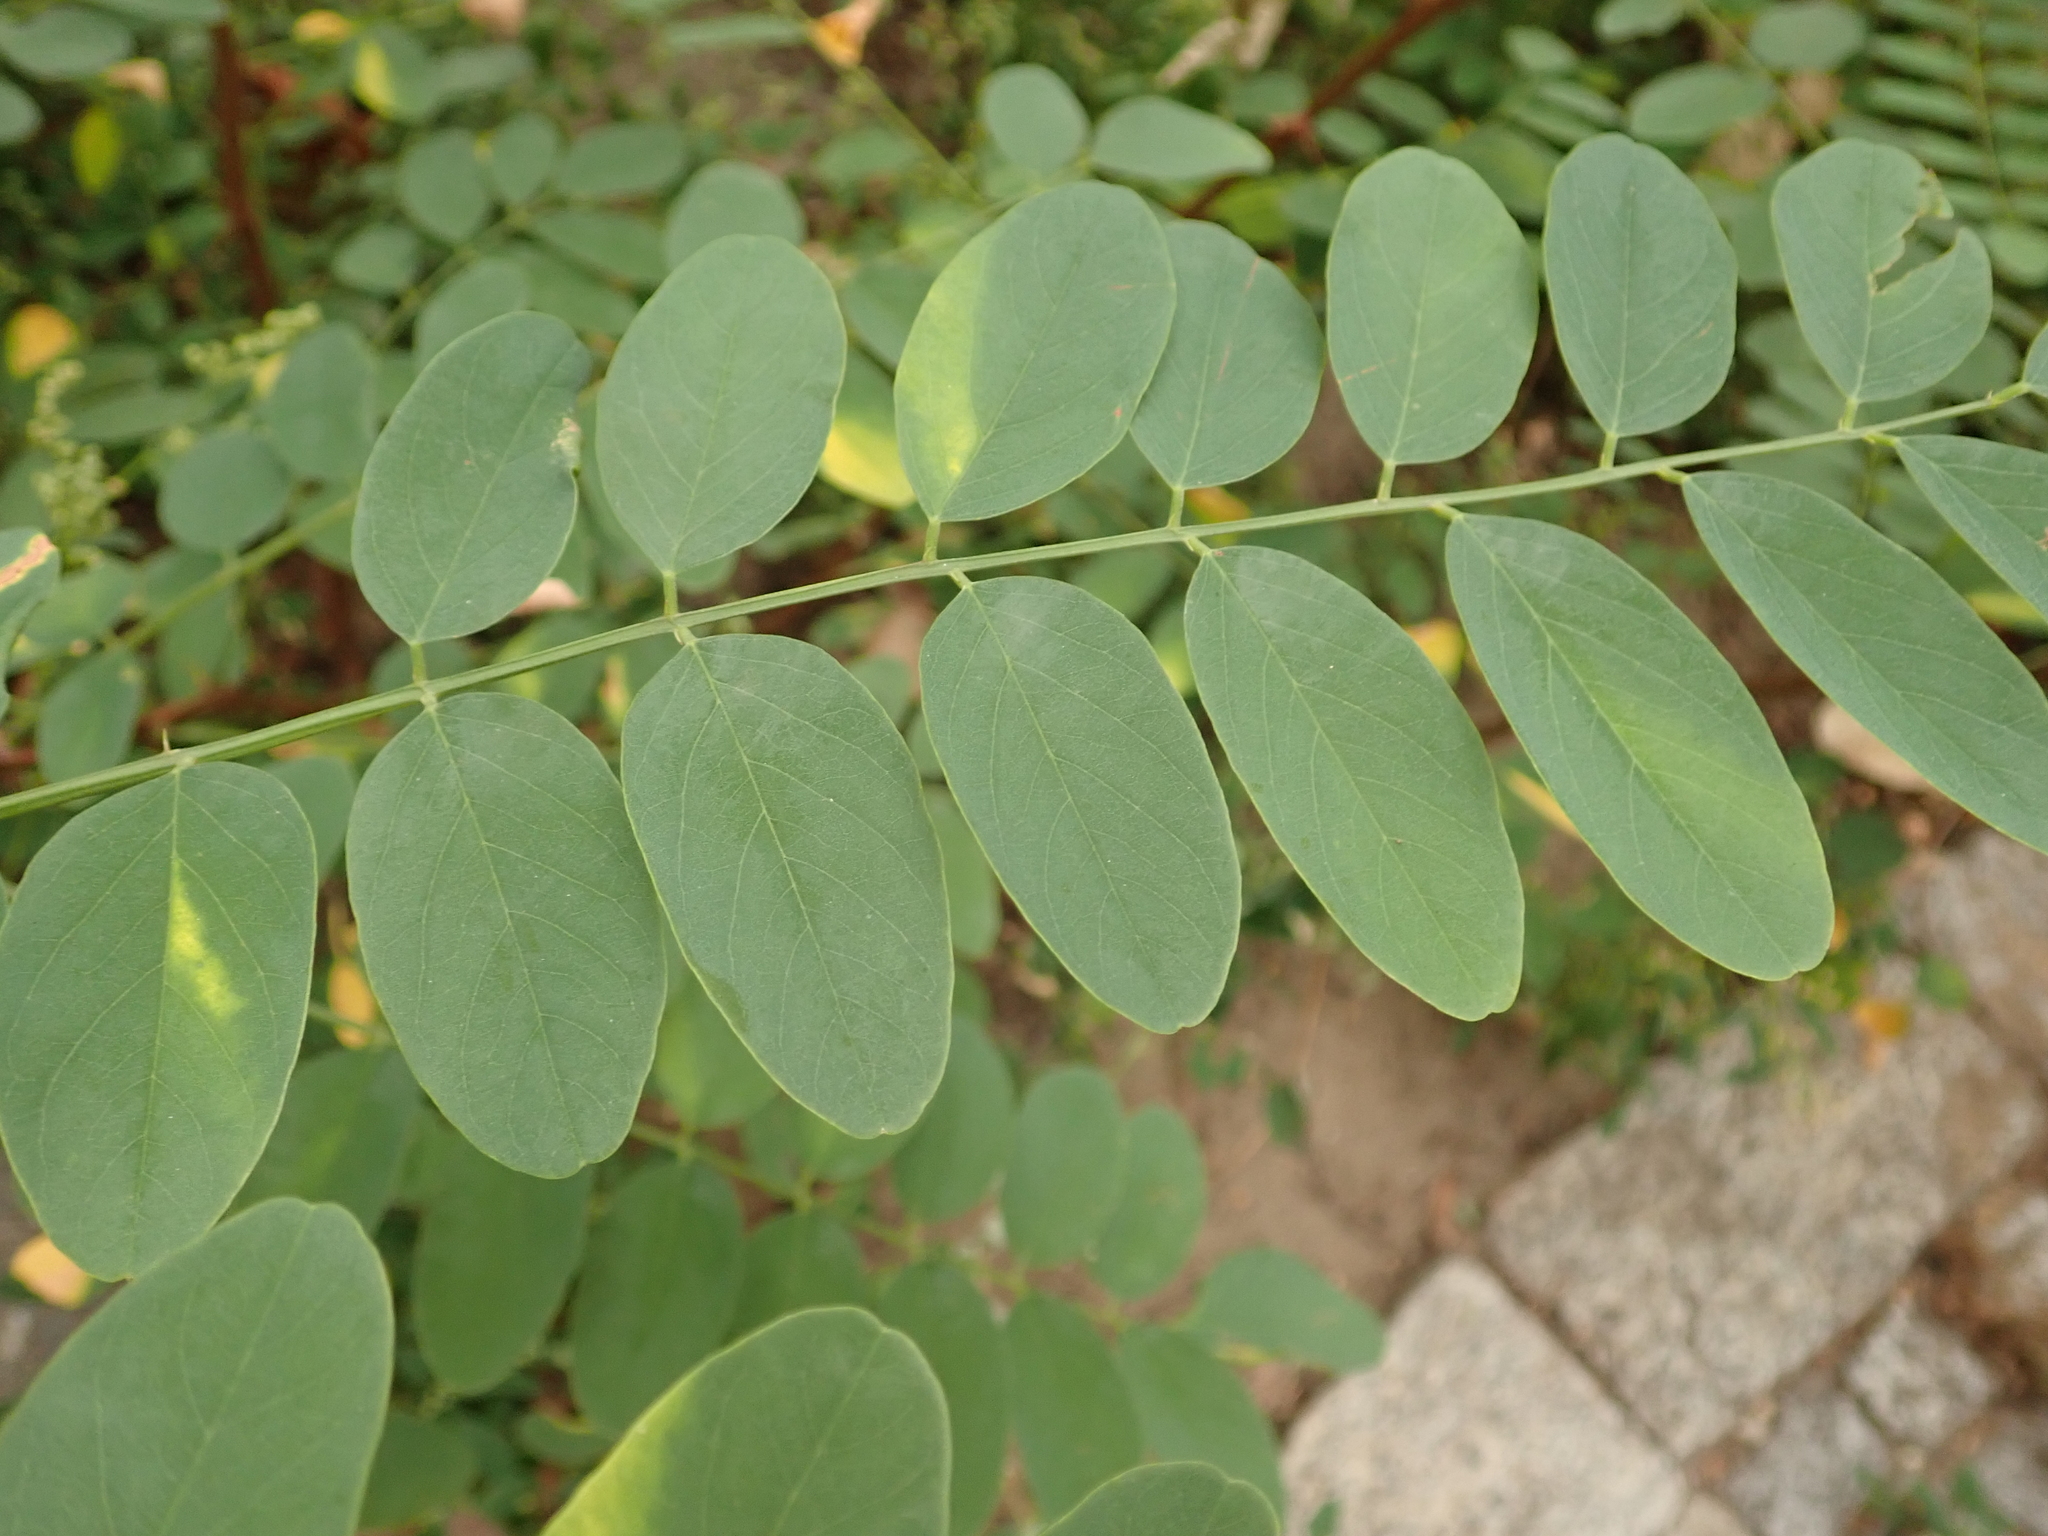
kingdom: Plantae
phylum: Tracheophyta
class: Magnoliopsida
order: Fabales
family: Fabaceae
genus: Robinia
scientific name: Robinia pseudoacacia
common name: Black locust
